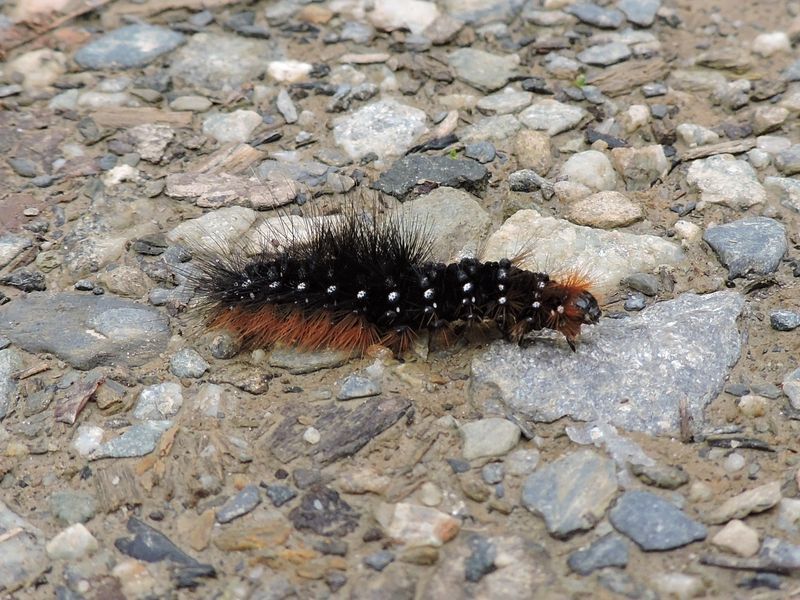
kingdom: Animalia
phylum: Arthropoda
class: Insecta
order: Lepidoptera
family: Erebidae
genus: Arctia
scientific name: Arctia caja
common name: Garden tiger
